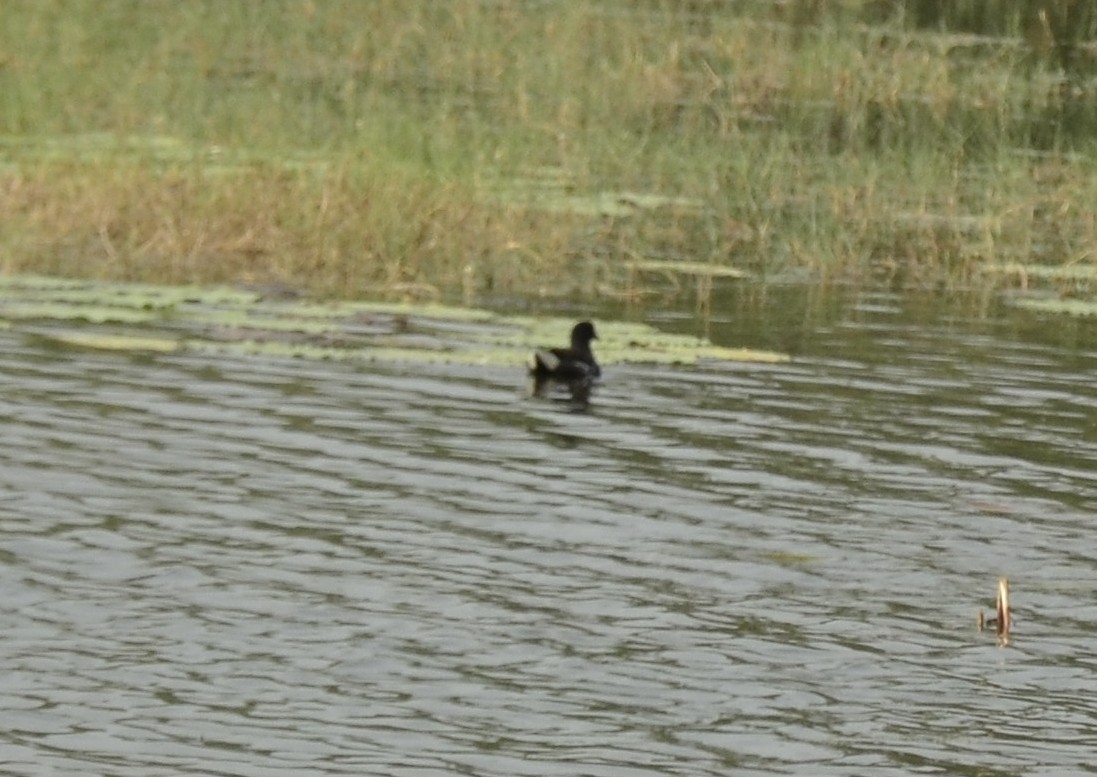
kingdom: Animalia
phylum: Chordata
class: Aves
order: Gruiformes
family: Rallidae
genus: Gallinula
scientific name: Gallinula chloropus
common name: Common moorhen
